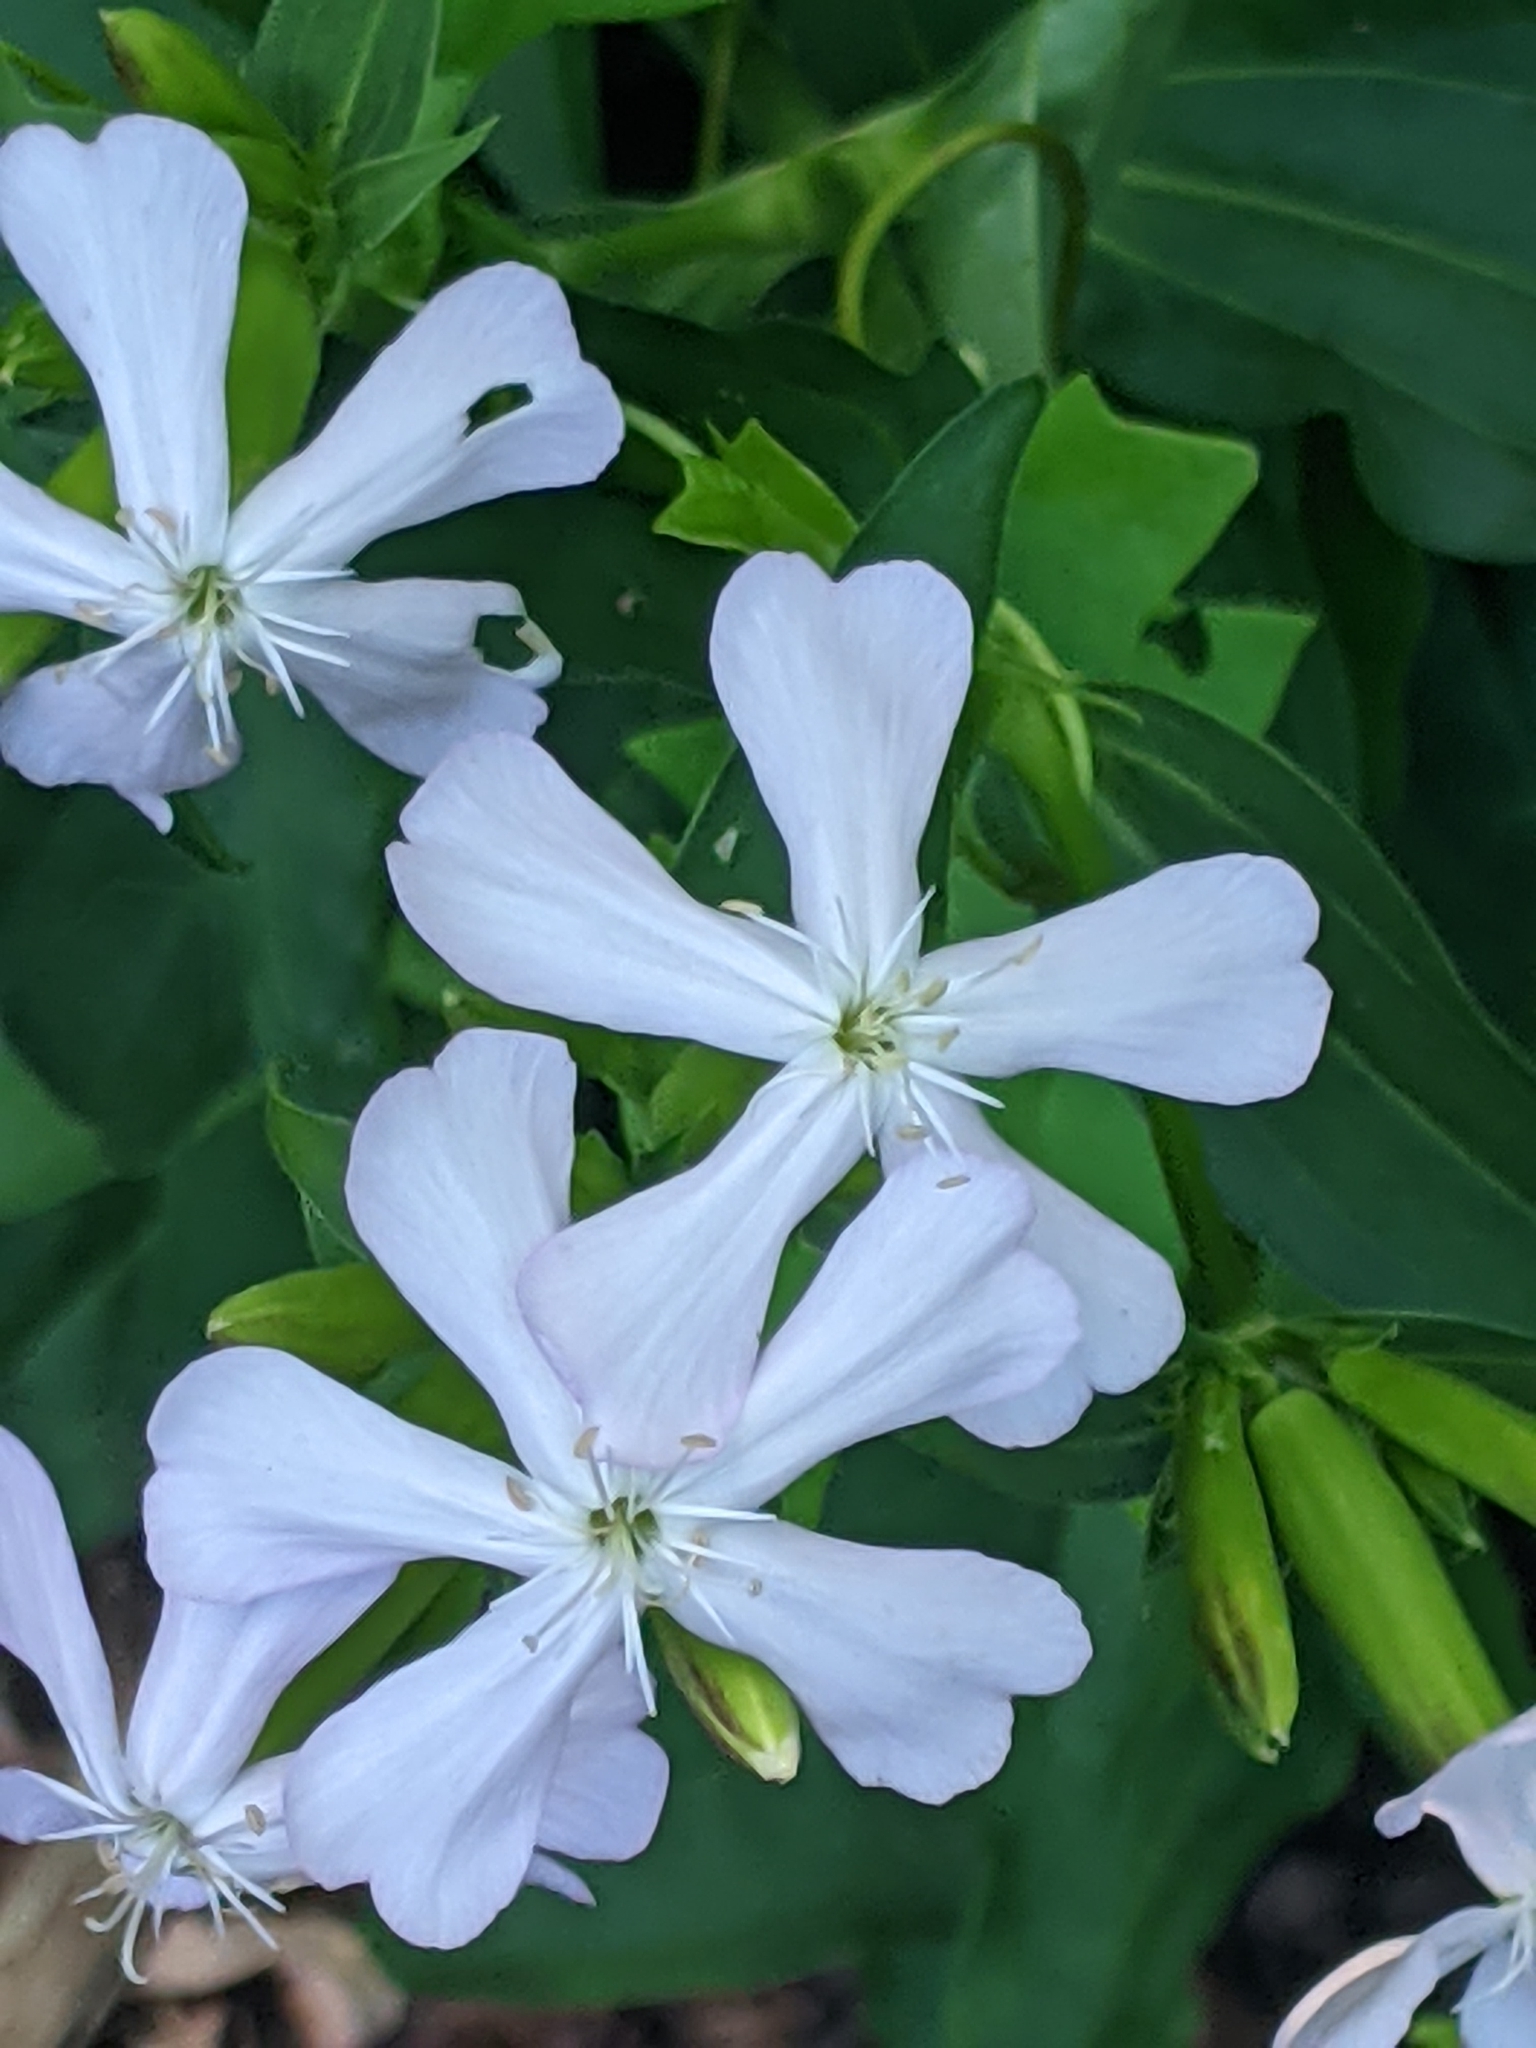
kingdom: Plantae
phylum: Tracheophyta
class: Magnoliopsida
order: Caryophyllales
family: Caryophyllaceae
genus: Saponaria
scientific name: Saponaria officinalis
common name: Soapwort
